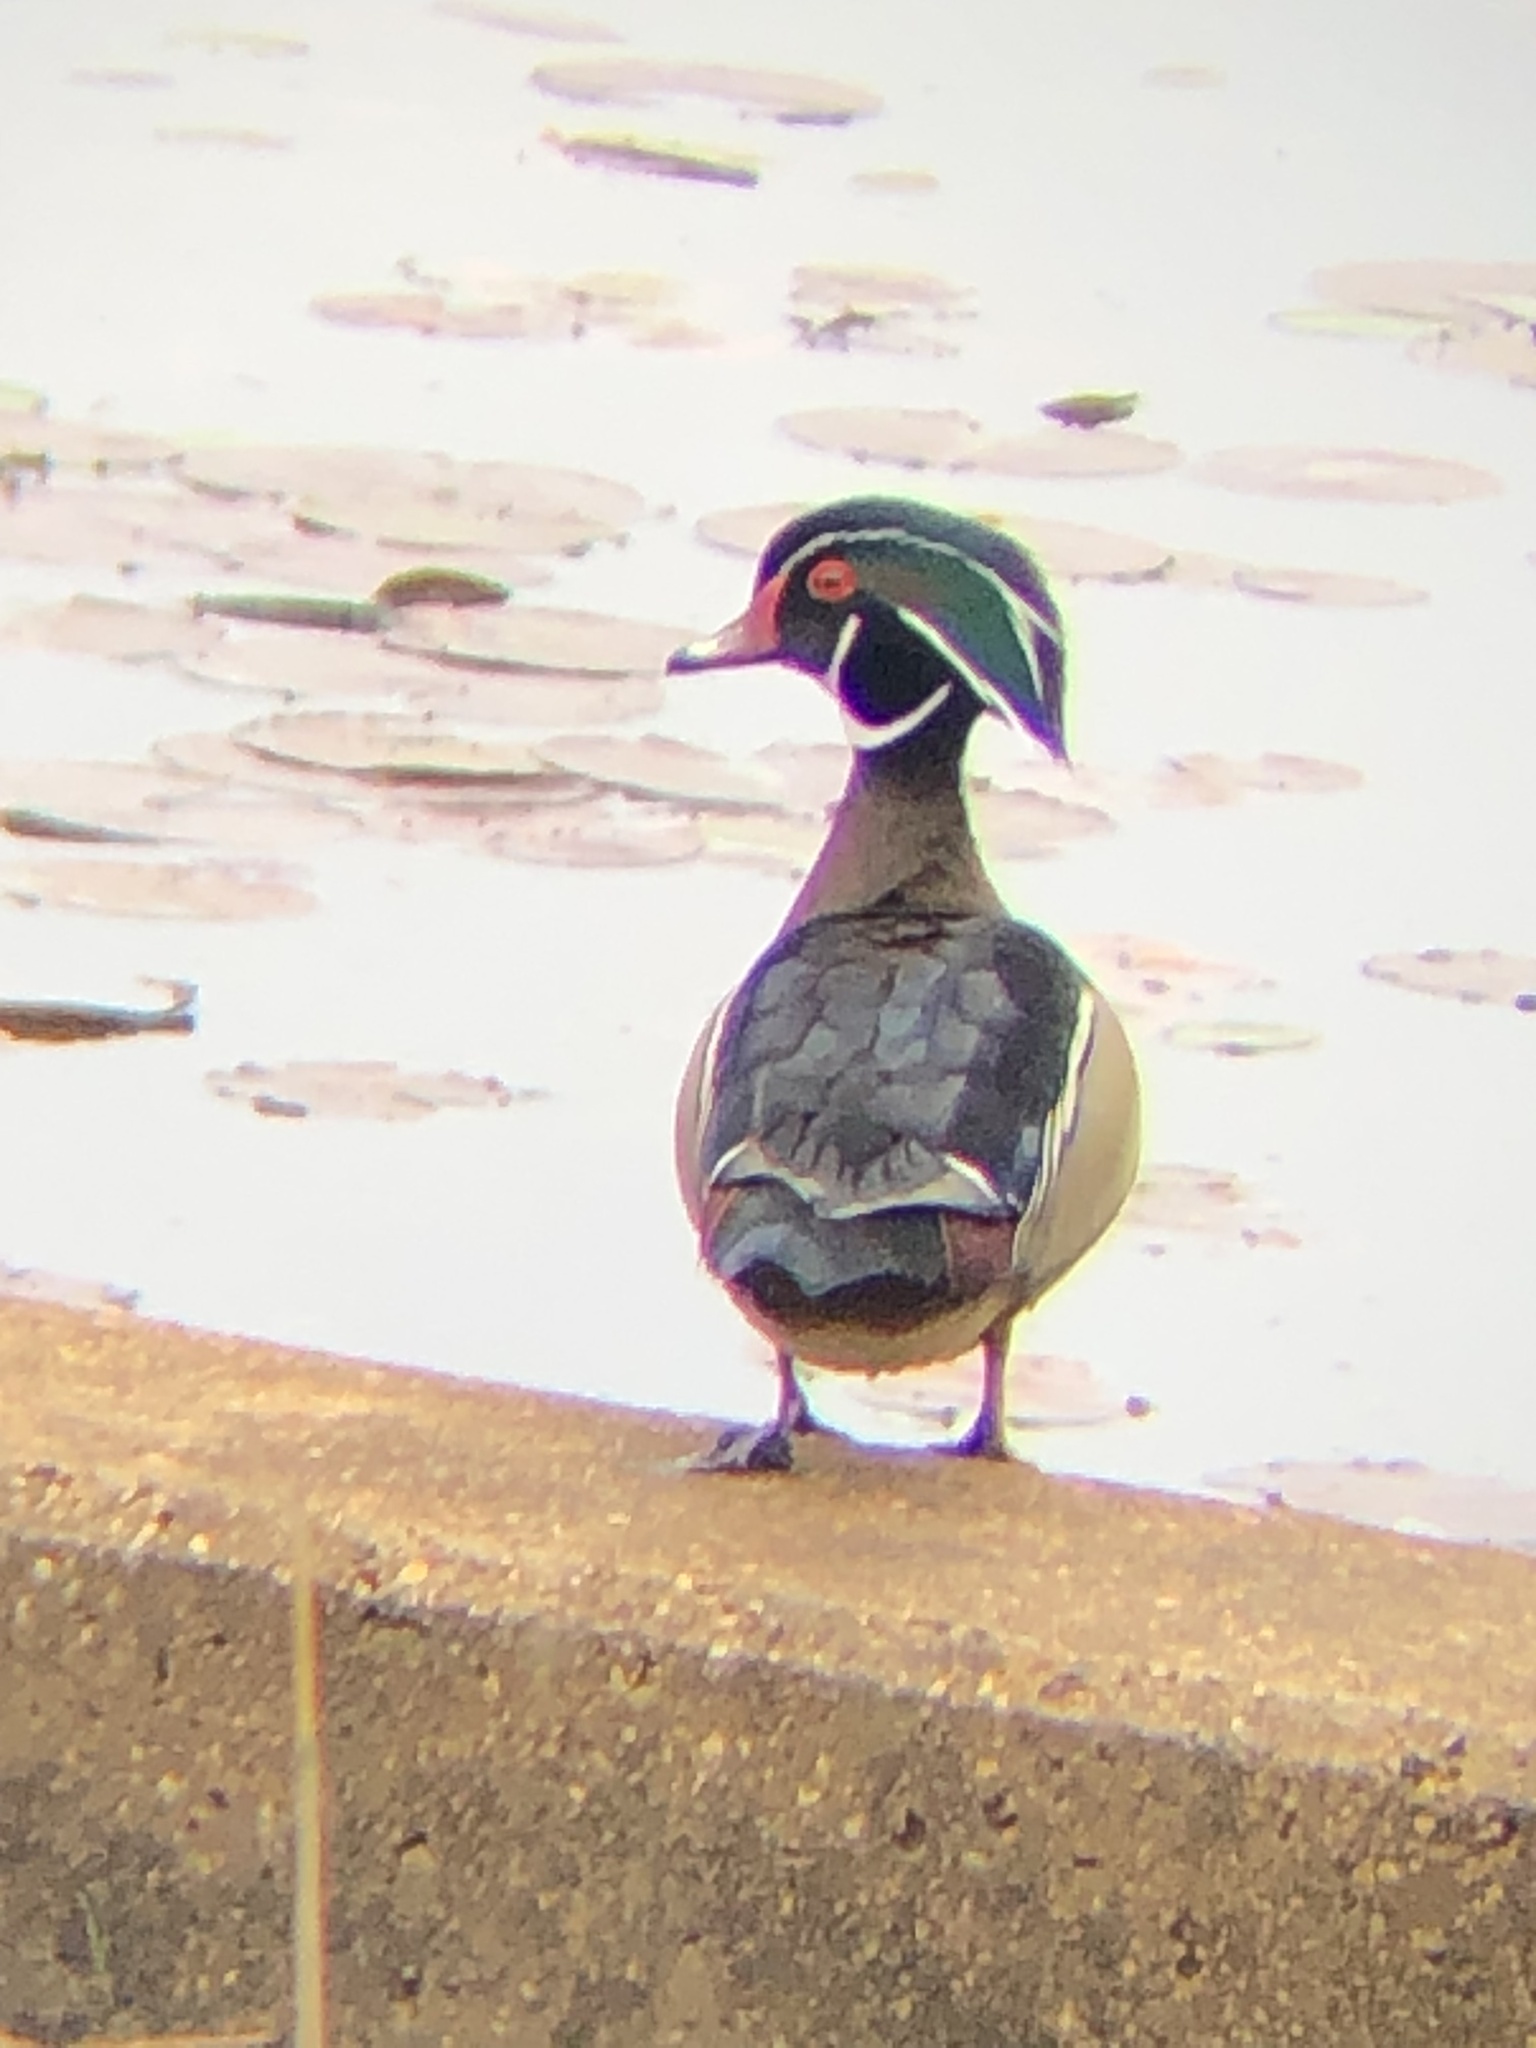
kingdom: Animalia
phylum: Chordata
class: Aves
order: Anseriformes
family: Anatidae
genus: Aix
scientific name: Aix sponsa
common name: Wood duck
